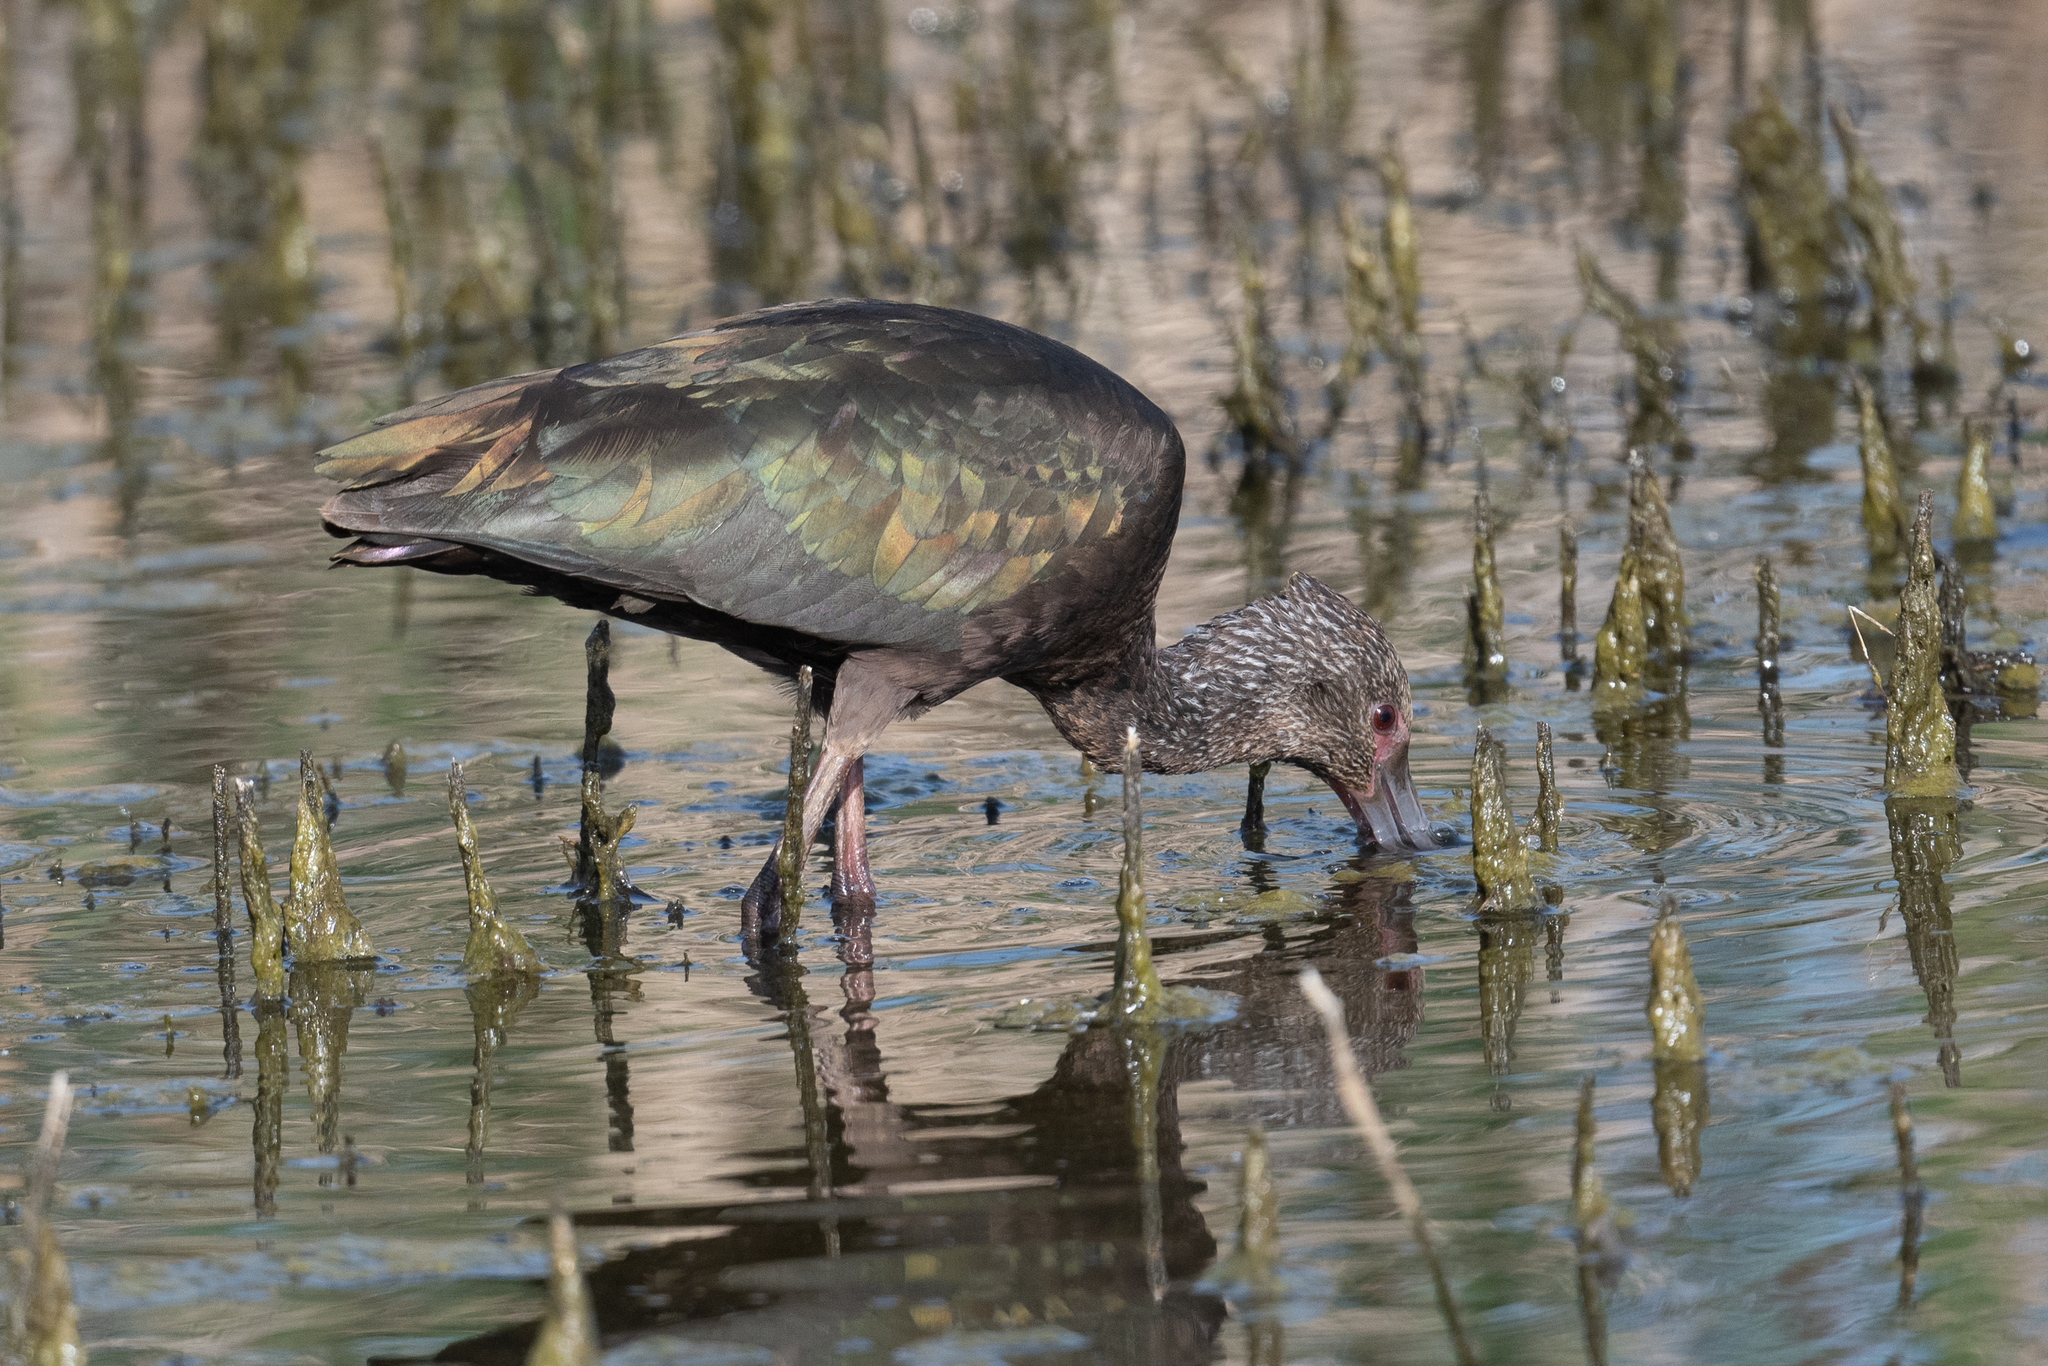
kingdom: Animalia
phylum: Chordata
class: Aves
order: Pelecaniformes
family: Threskiornithidae
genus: Plegadis
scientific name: Plegadis chihi
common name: White-faced ibis
